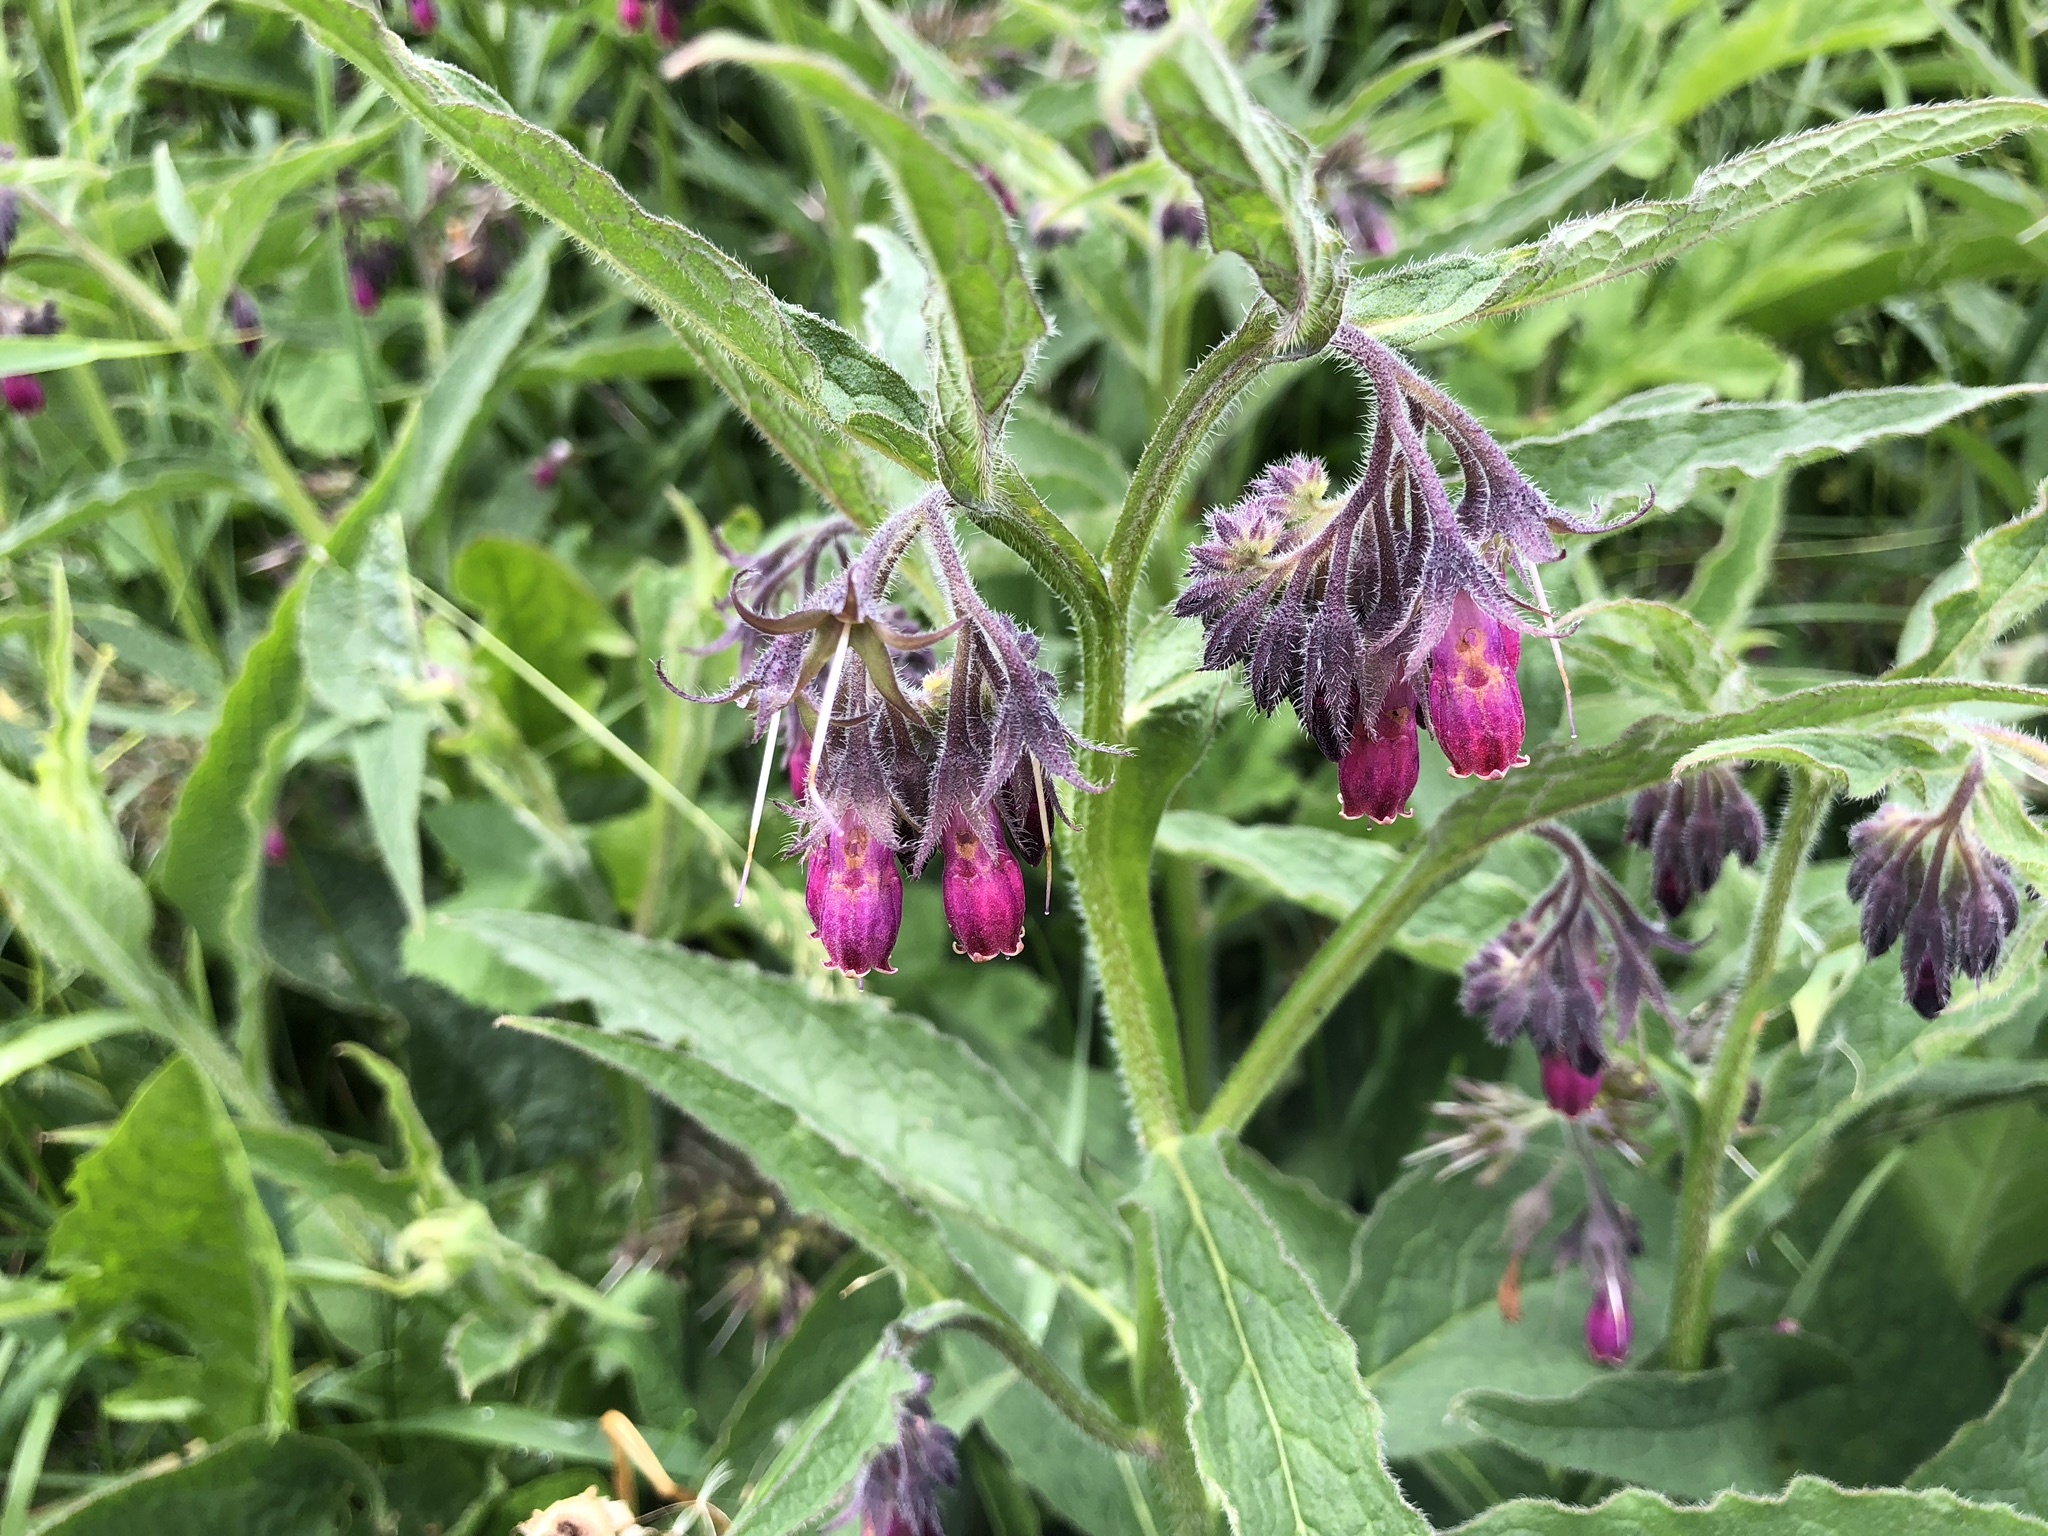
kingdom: Plantae
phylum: Tracheophyta
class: Magnoliopsida
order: Boraginales
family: Boraginaceae
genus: Symphytum
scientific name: Symphytum officinale
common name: Common comfrey
